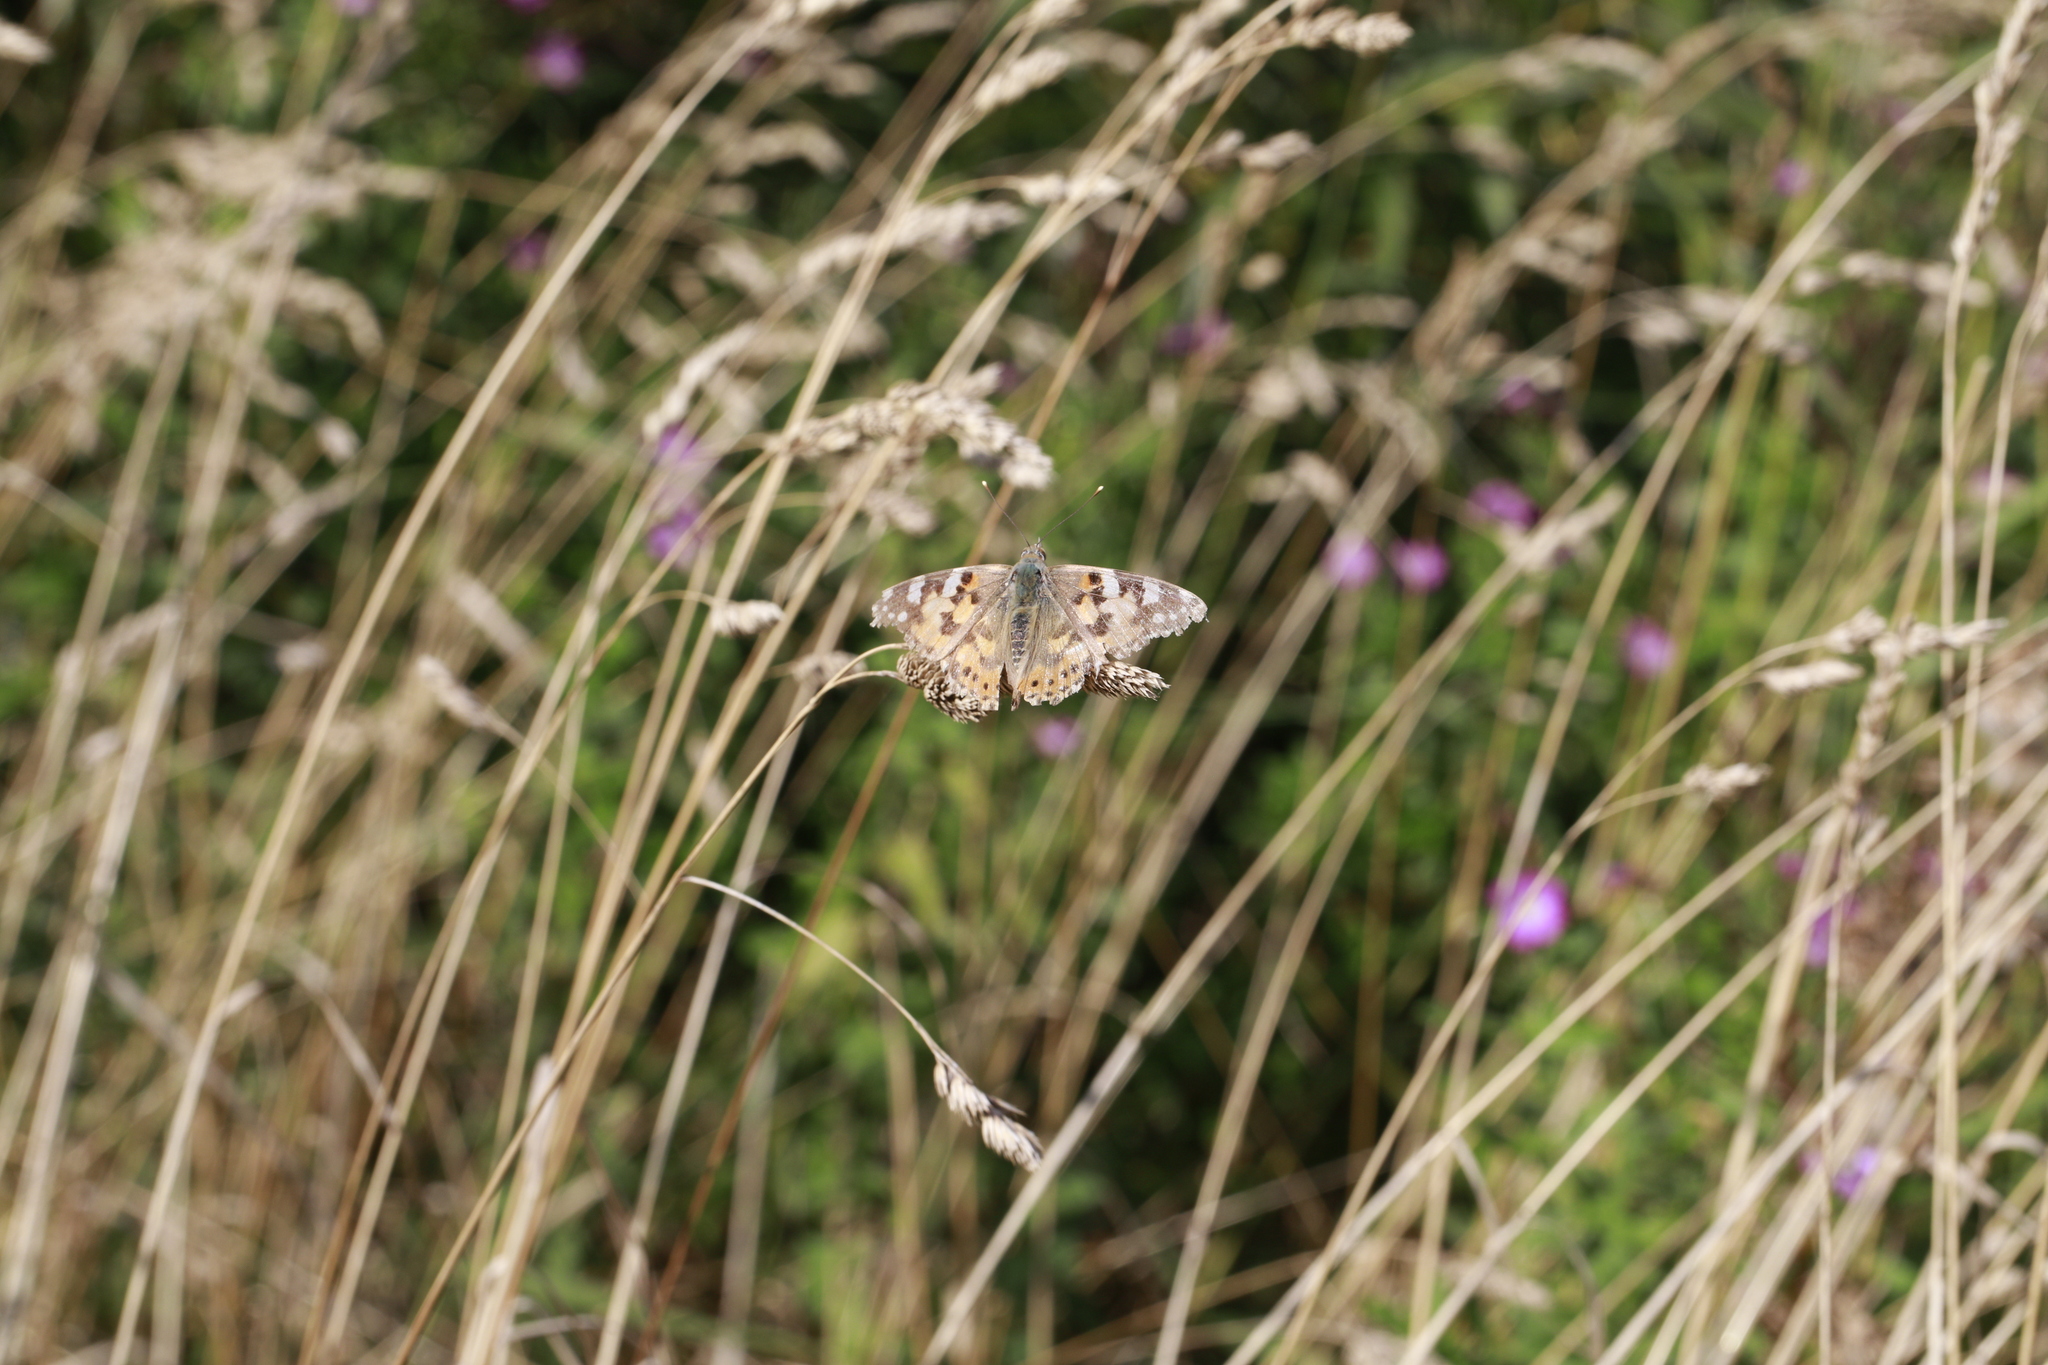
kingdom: Animalia
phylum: Arthropoda
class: Insecta
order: Lepidoptera
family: Nymphalidae
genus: Vanessa
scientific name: Vanessa cardui
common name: Painted lady
